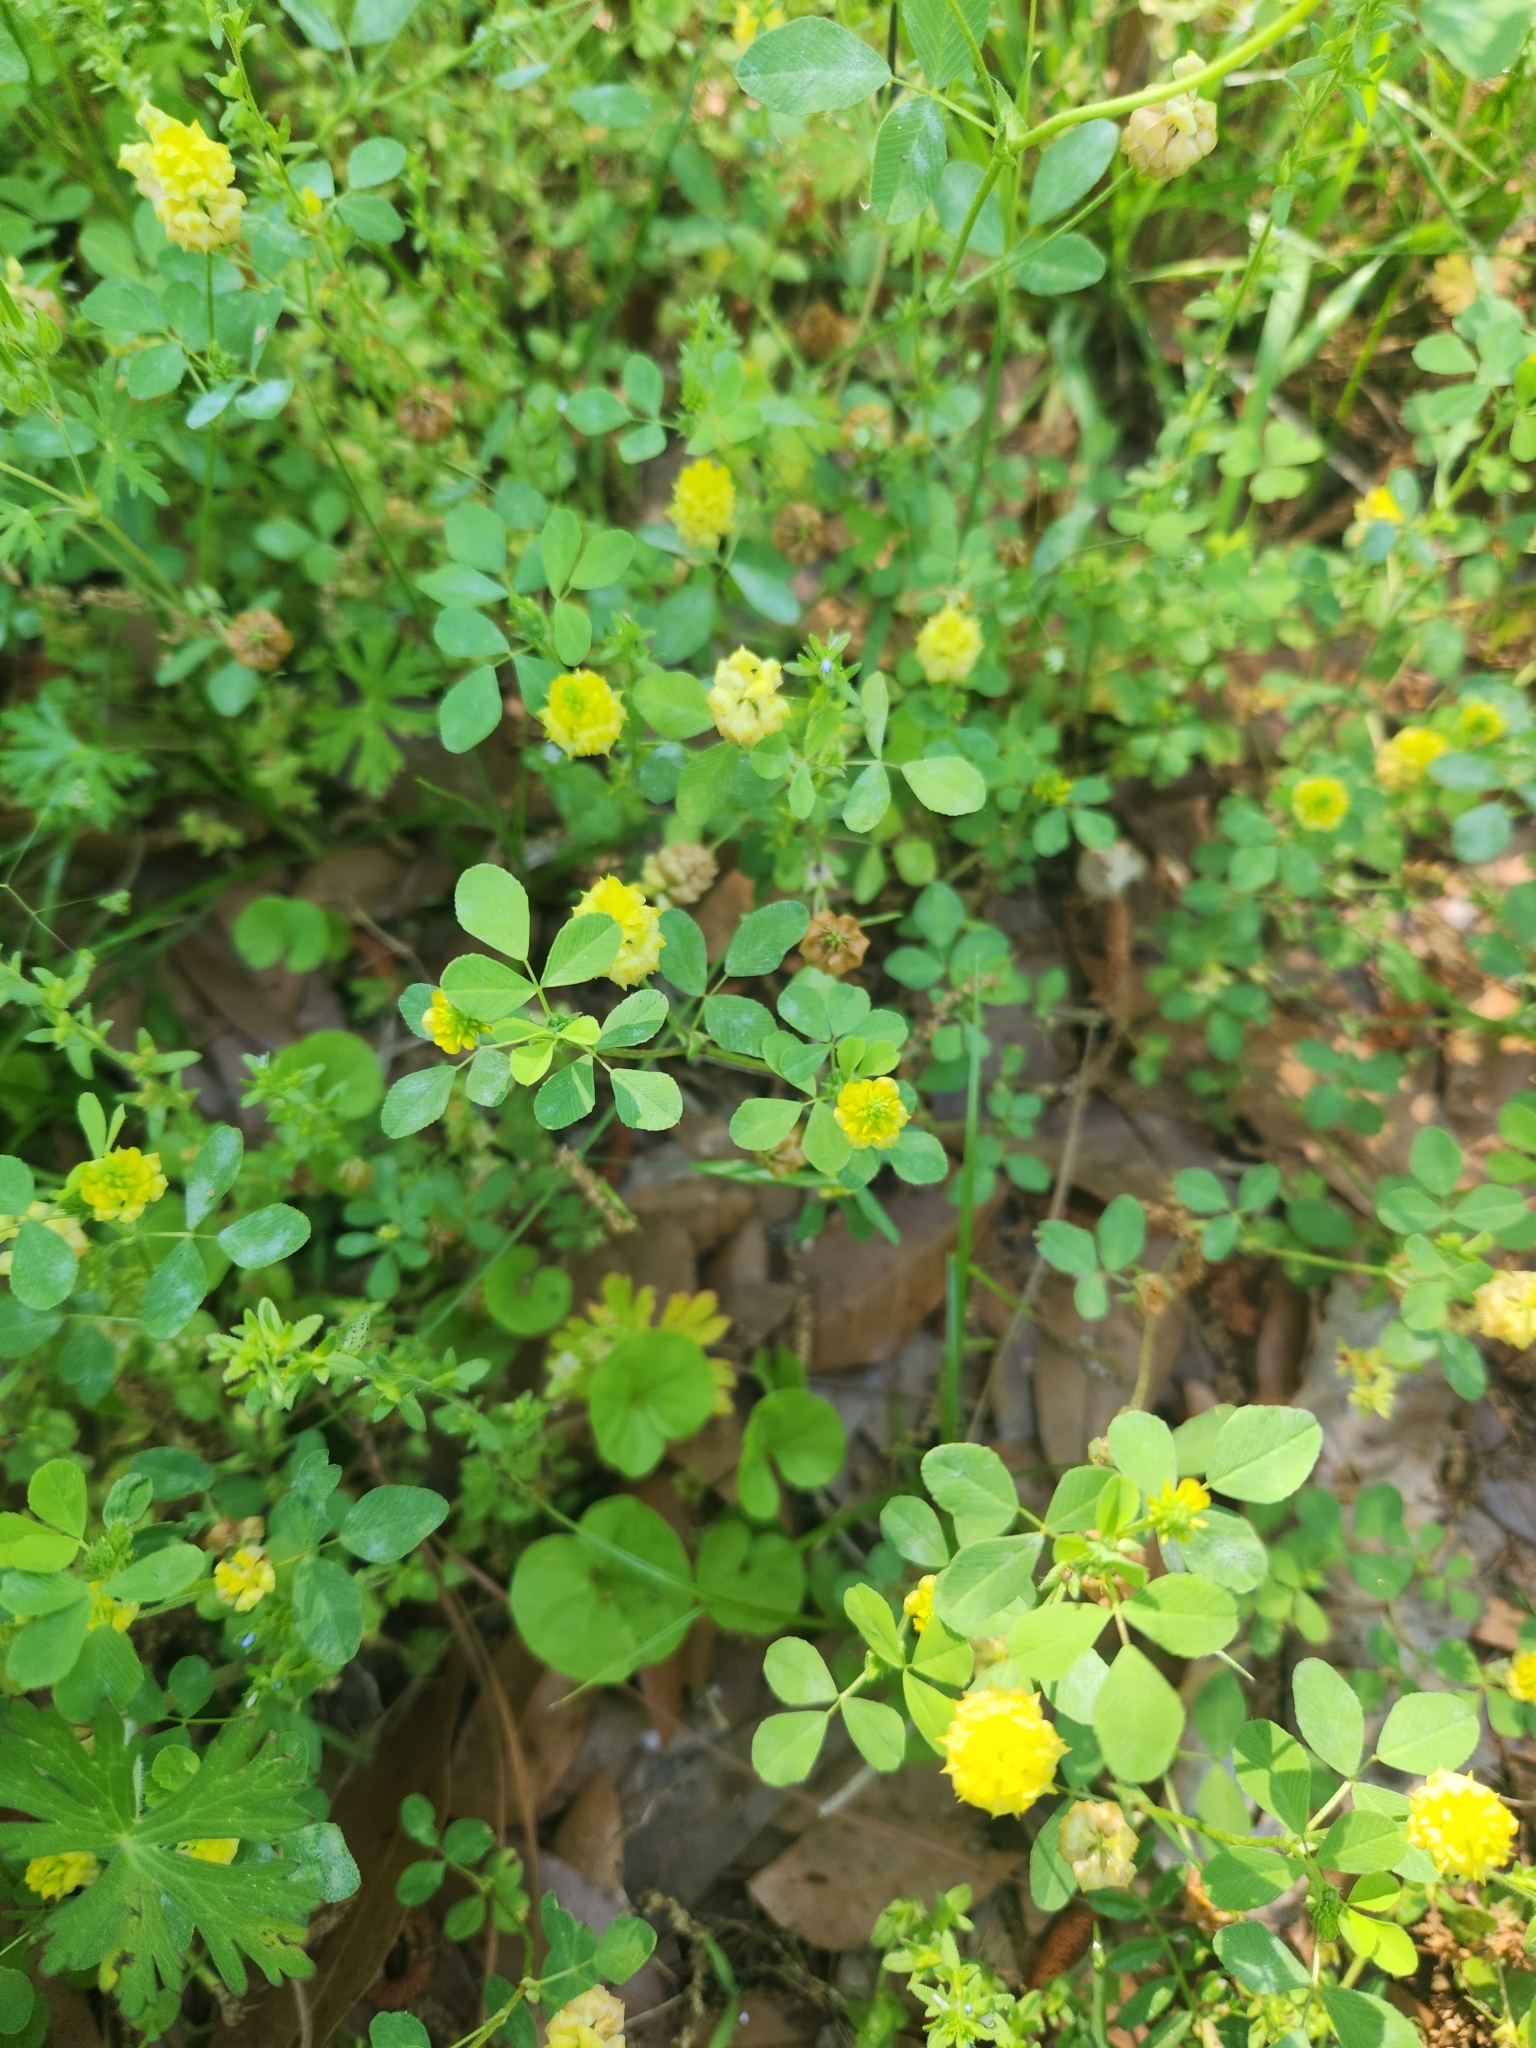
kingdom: Plantae
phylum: Tracheophyta
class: Magnoliopsida
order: Fabales
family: Fabaceae
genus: Trifolium
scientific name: Trifolium campestre
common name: Field clover
